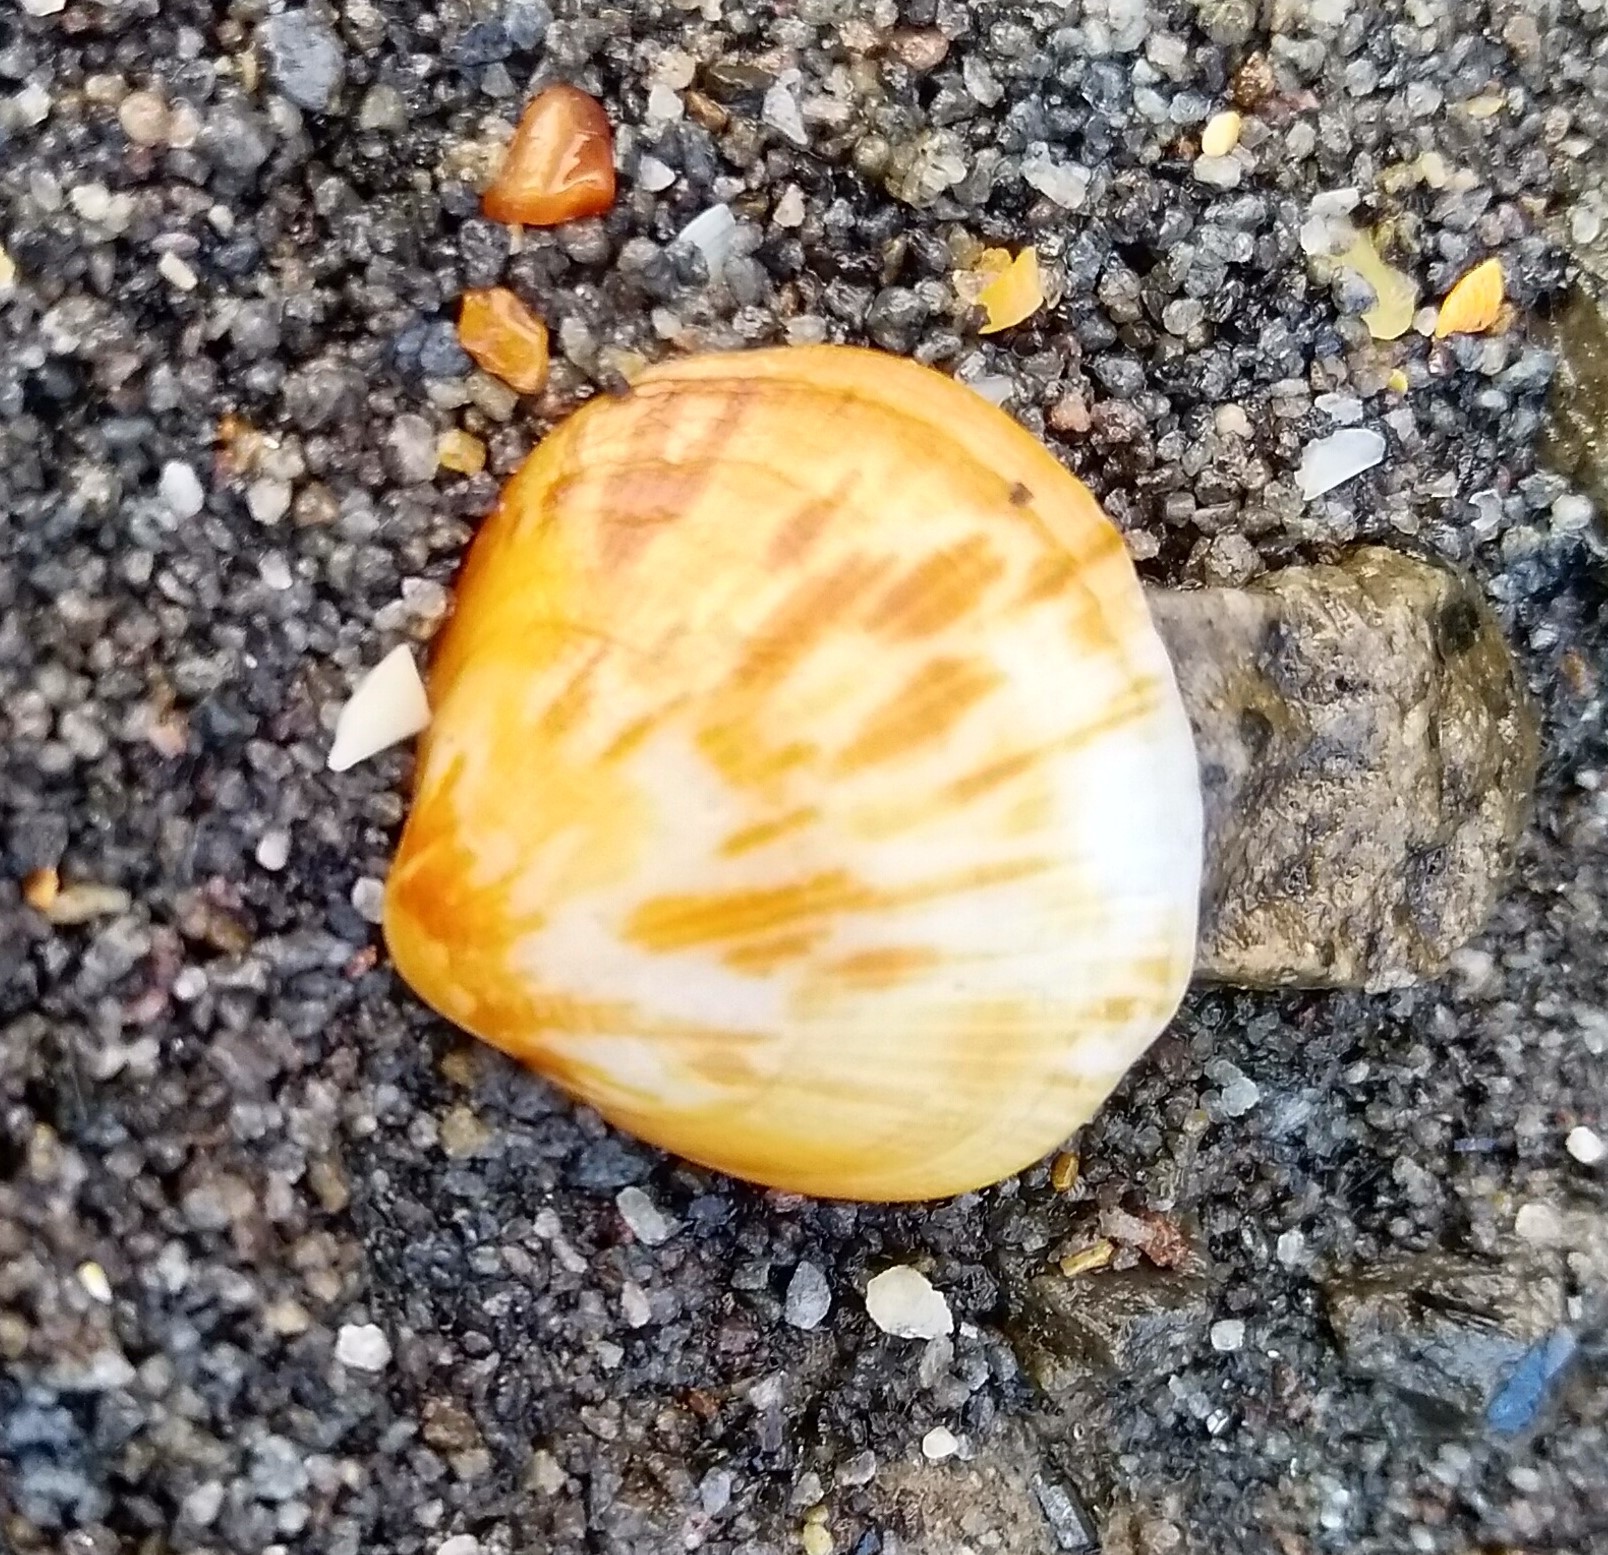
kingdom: Animalia
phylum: Mollusca
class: Bivalvia
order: Arcida
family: Glycymerididae
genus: Glycymeris
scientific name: Glycymeris modesta
